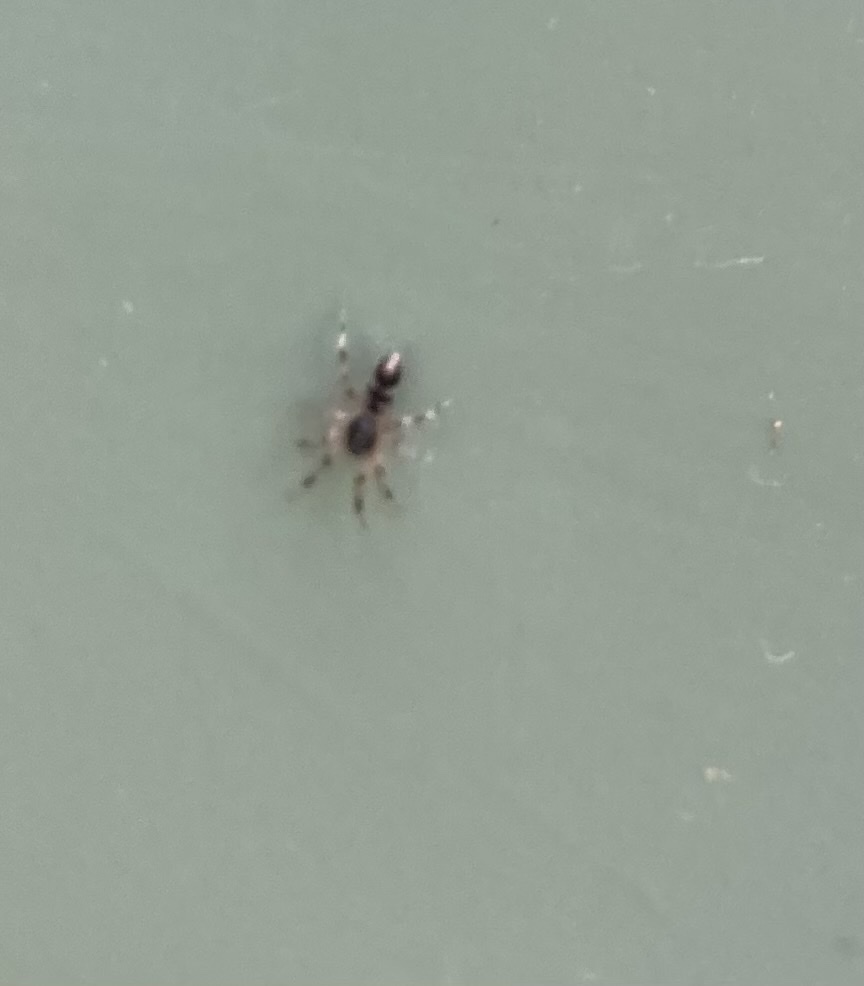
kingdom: Animalia
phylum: Arthropoda
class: Arachnida
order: Araneae
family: Lamponidae
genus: Lampona
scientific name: Lampona murina
